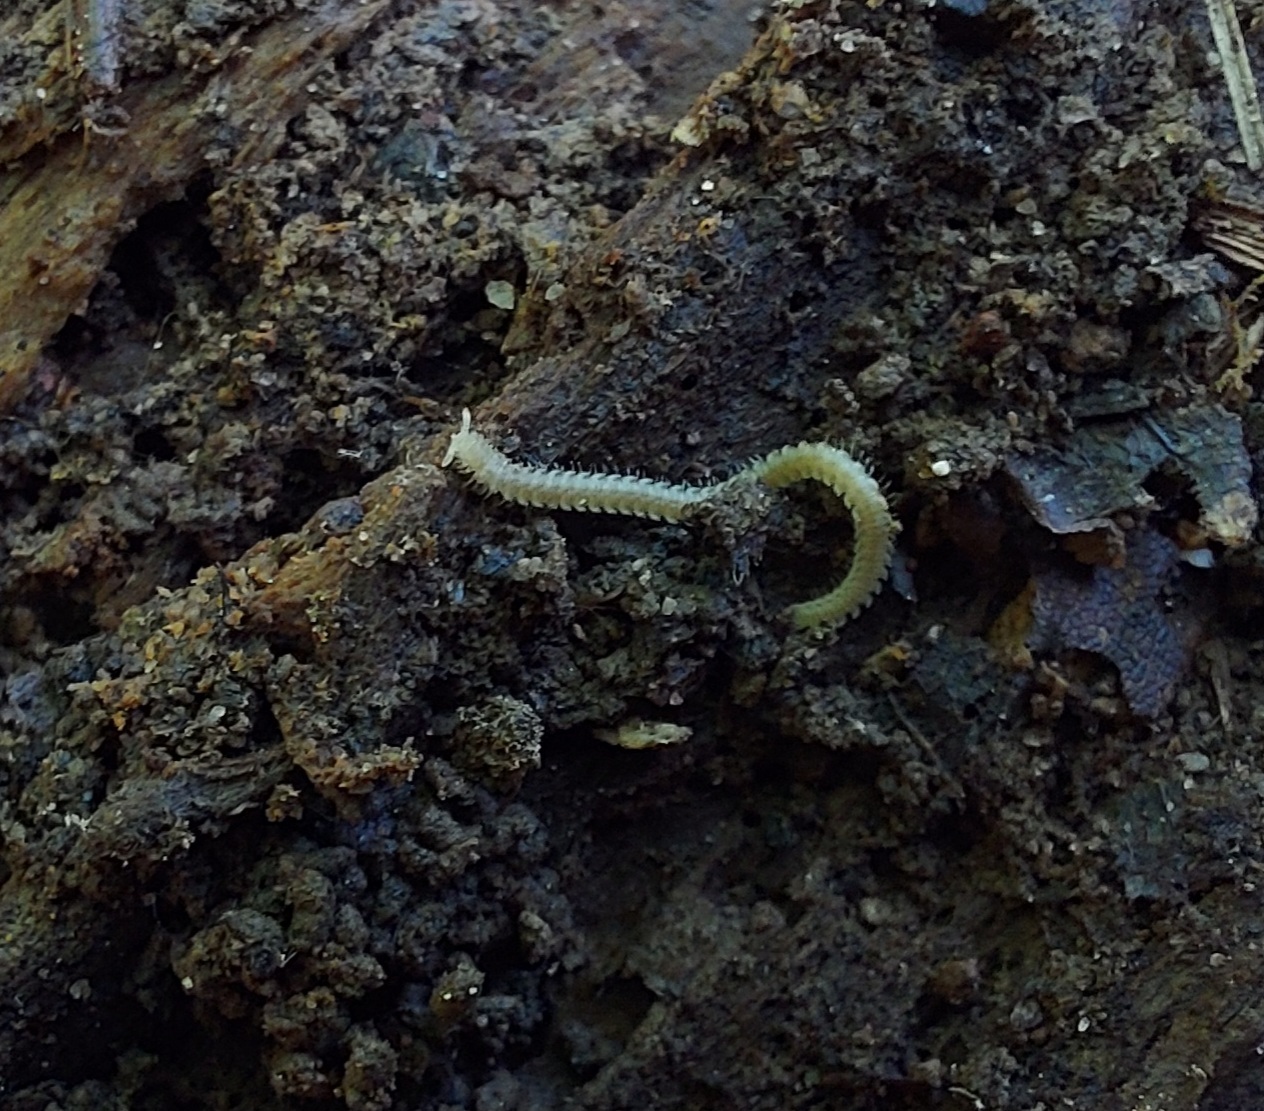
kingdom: Animalia
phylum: Arthropoda
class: Diplopoda
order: Platydesmida
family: Andrognathidae
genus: Andrognathus
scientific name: Andrognathus corticarius
